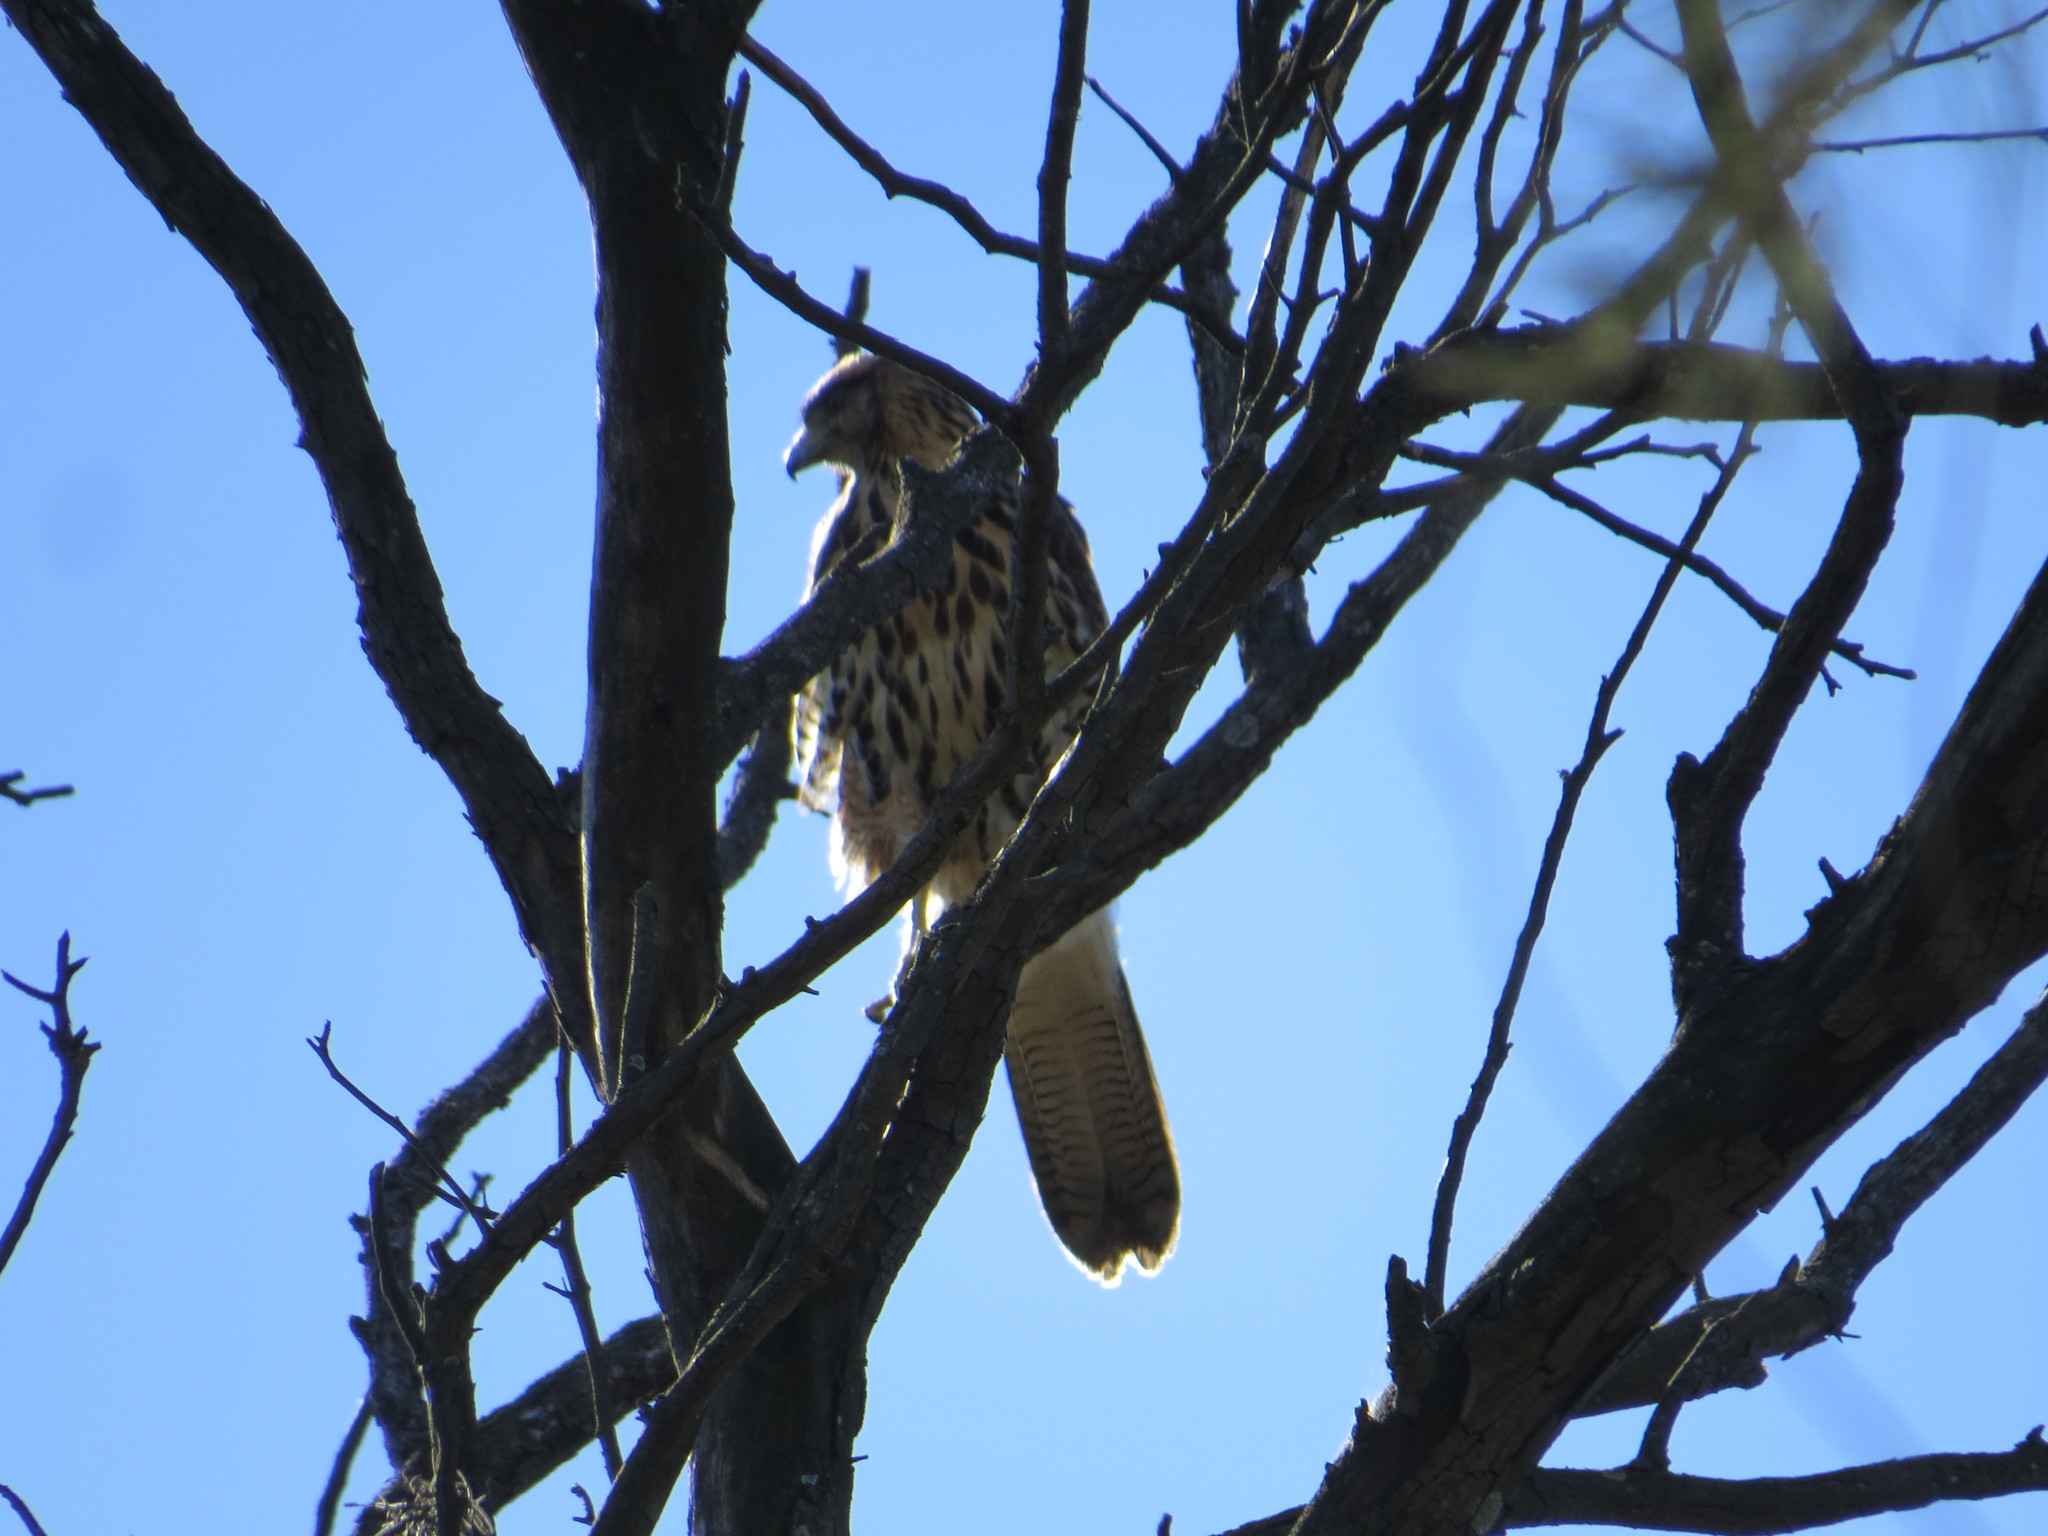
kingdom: Animalia
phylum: Chordata
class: Aves
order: Accipitriformes
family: Accipitridae
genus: Parabuteo
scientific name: Parabuteo unicinctus
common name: Harris's hawk
